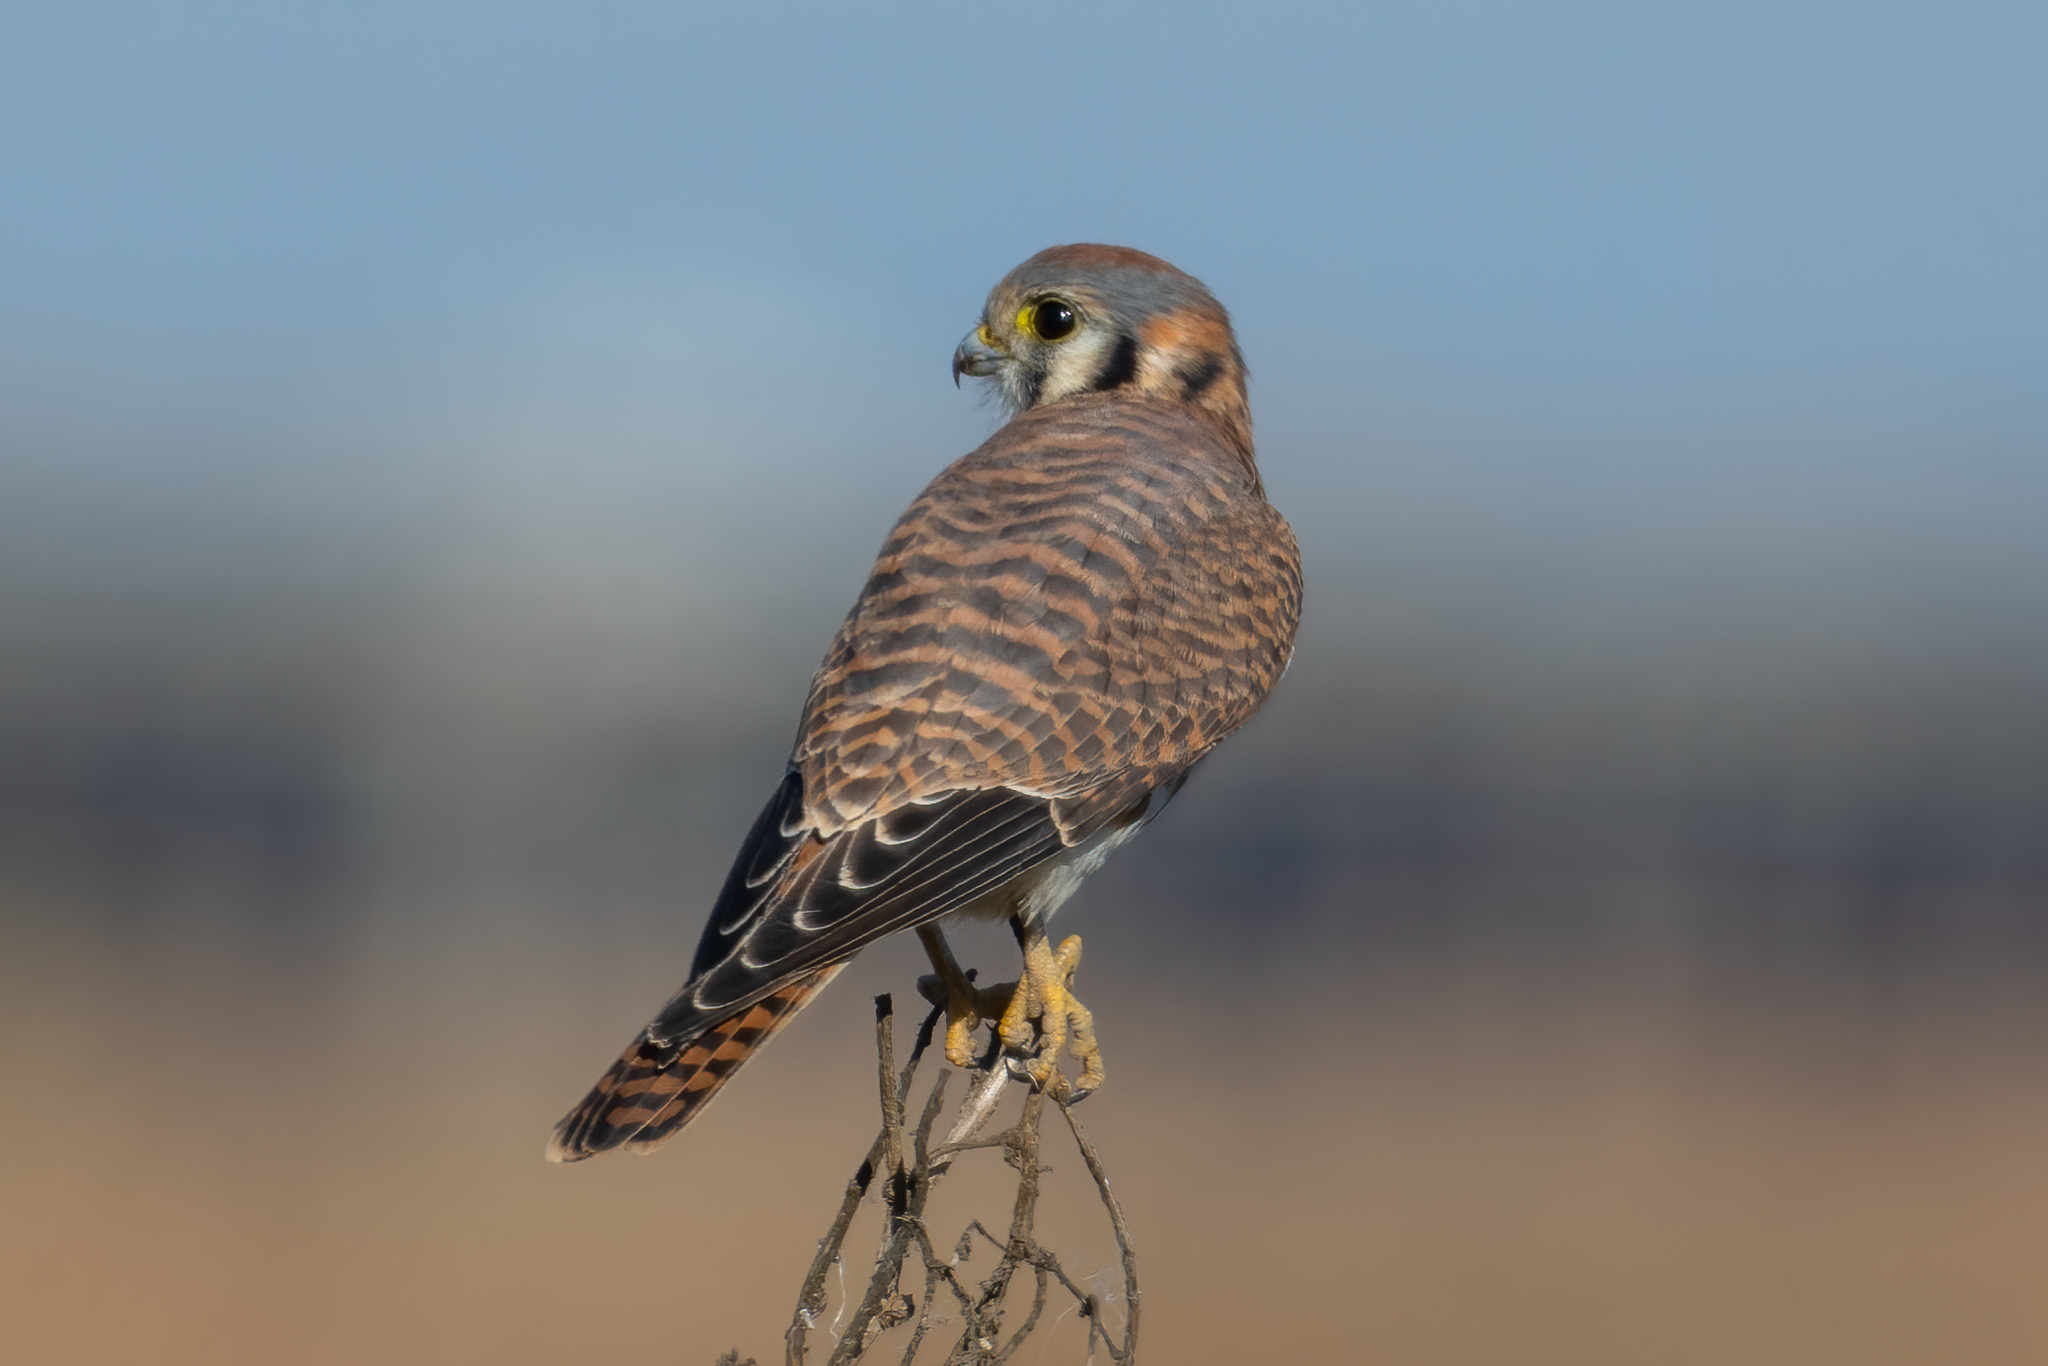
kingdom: Animalia
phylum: Chordata
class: Aves
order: Falconiformes
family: Falconidae
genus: Falco
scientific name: Falco sparverius
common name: American kestrel
